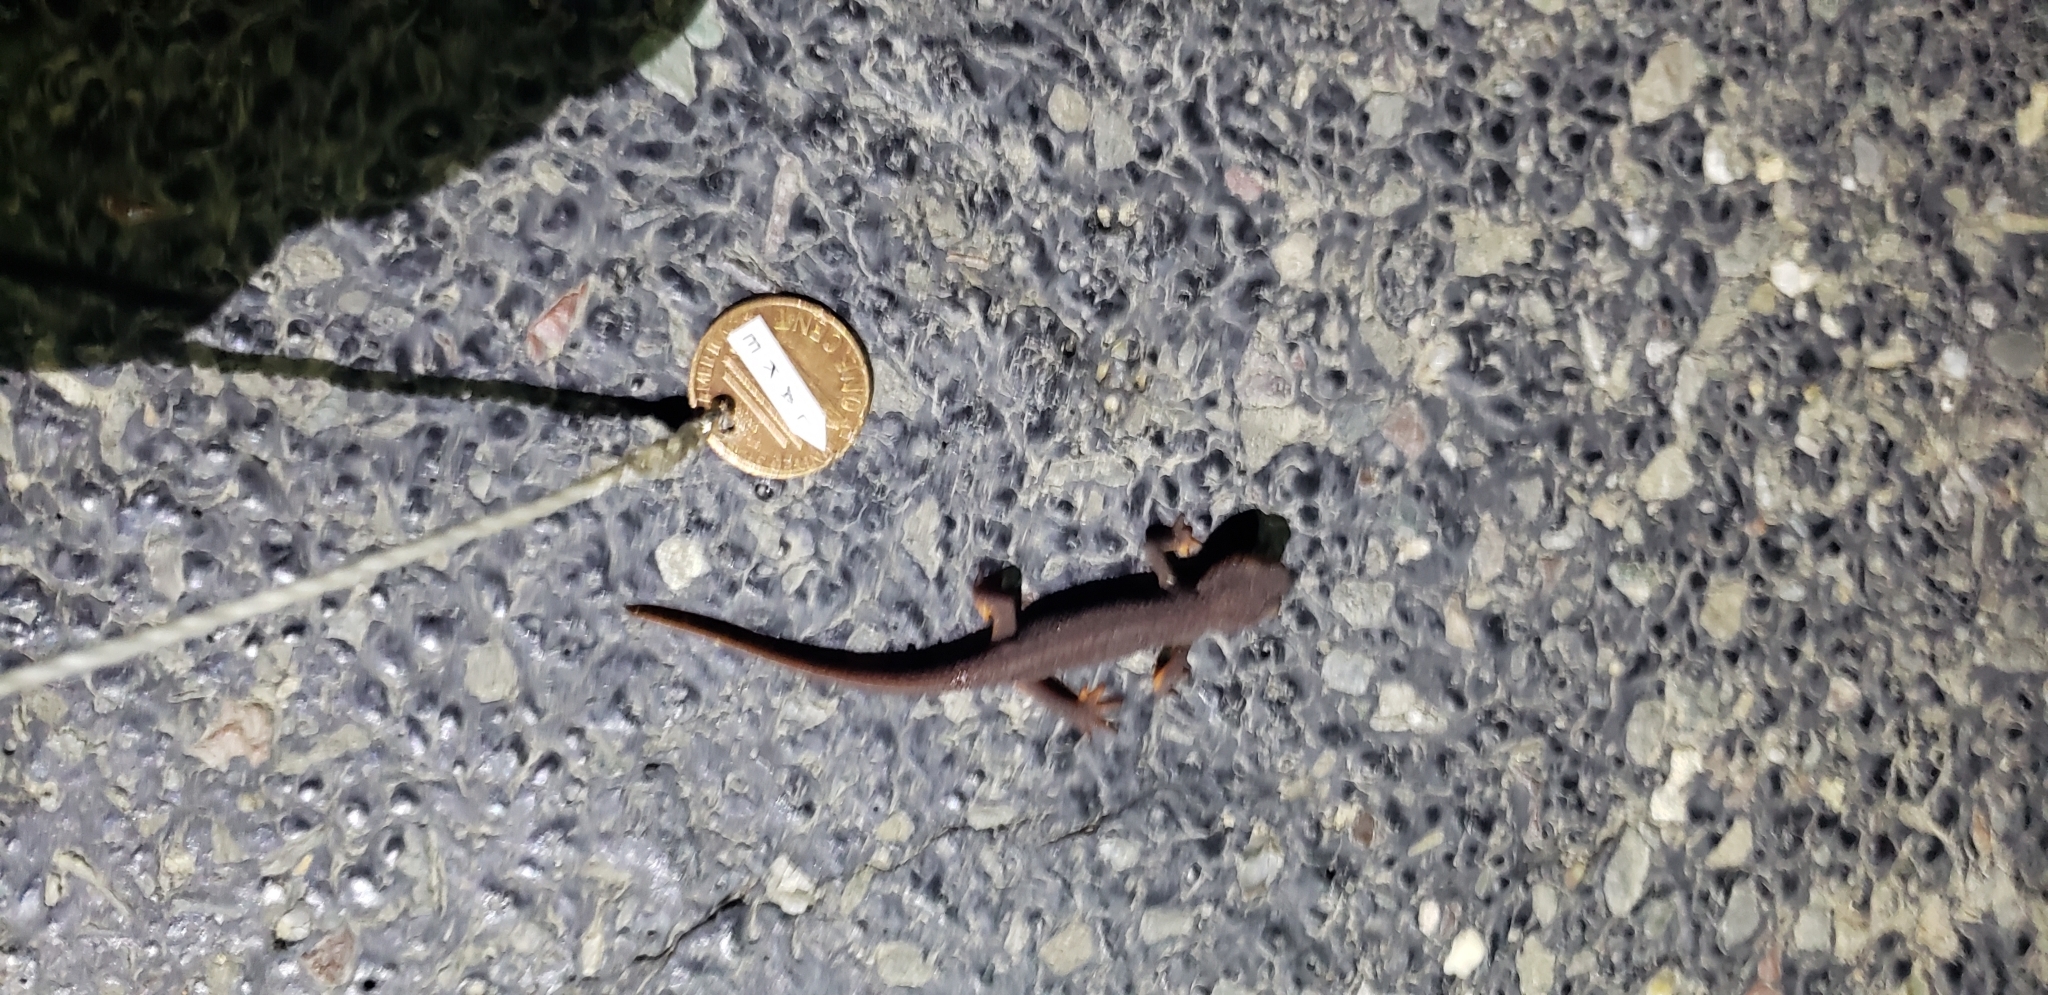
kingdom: Animalia
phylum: Chordata
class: Amphibia
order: Caudata
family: Salamandridae
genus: Taricha
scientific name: Taricha granulosa
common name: Roughskin newt
